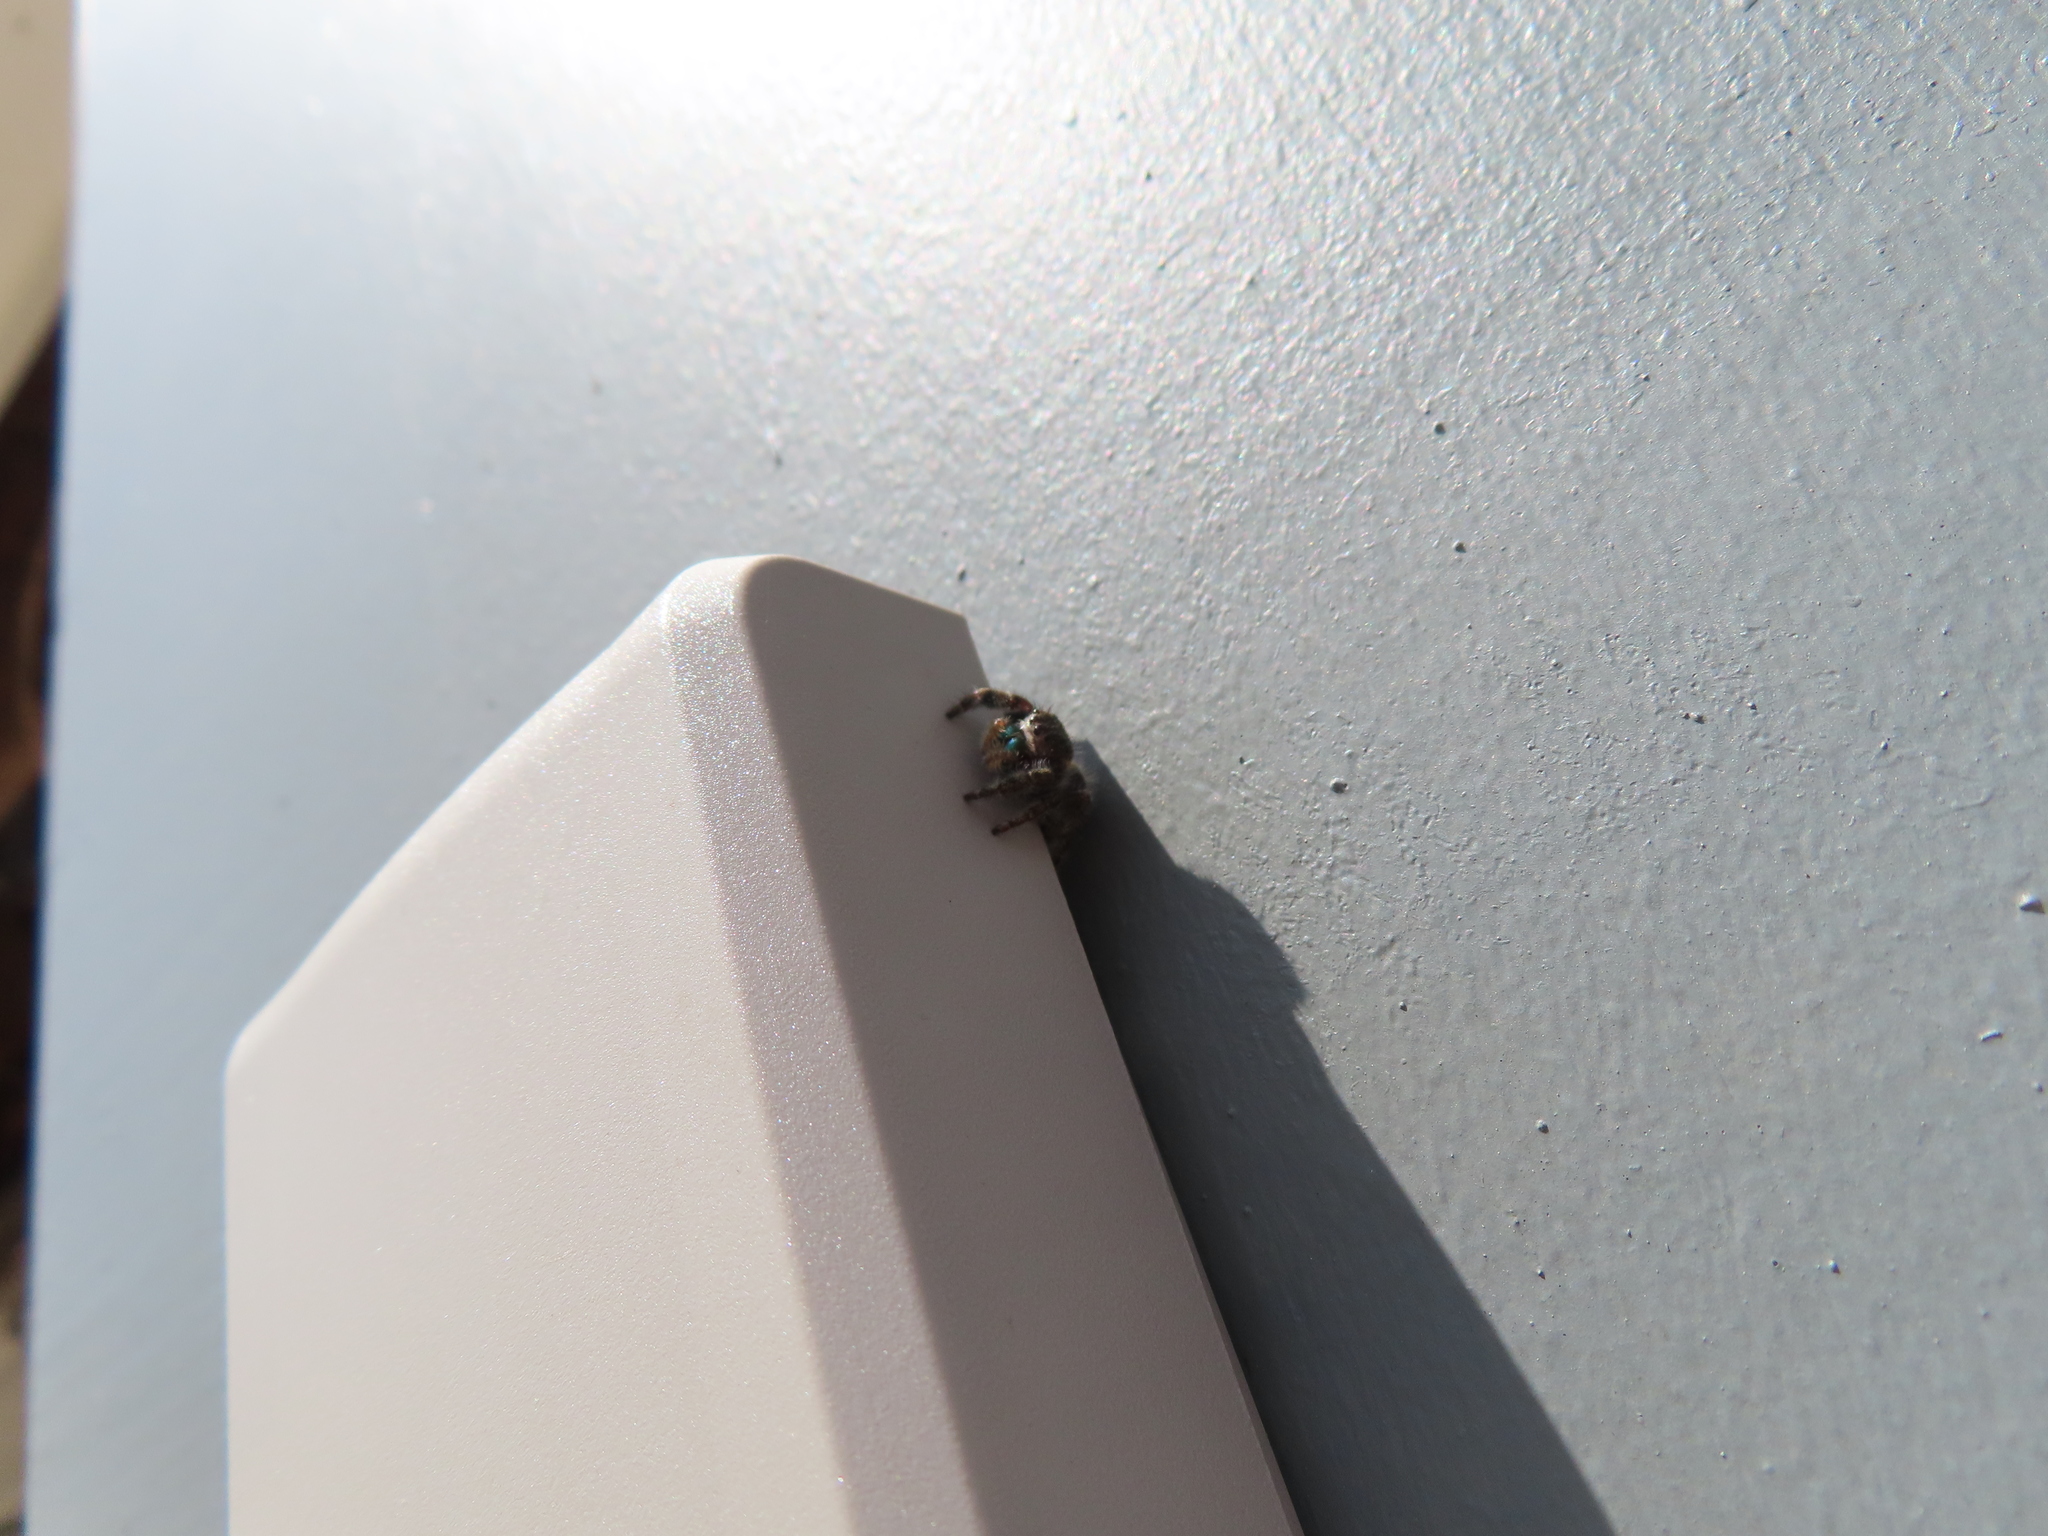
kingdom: Animalia
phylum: Arthropoda
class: Arachnida
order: Araneae
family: Salticidae
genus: Phidippus
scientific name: Phidippus audax
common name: Bold jumper
